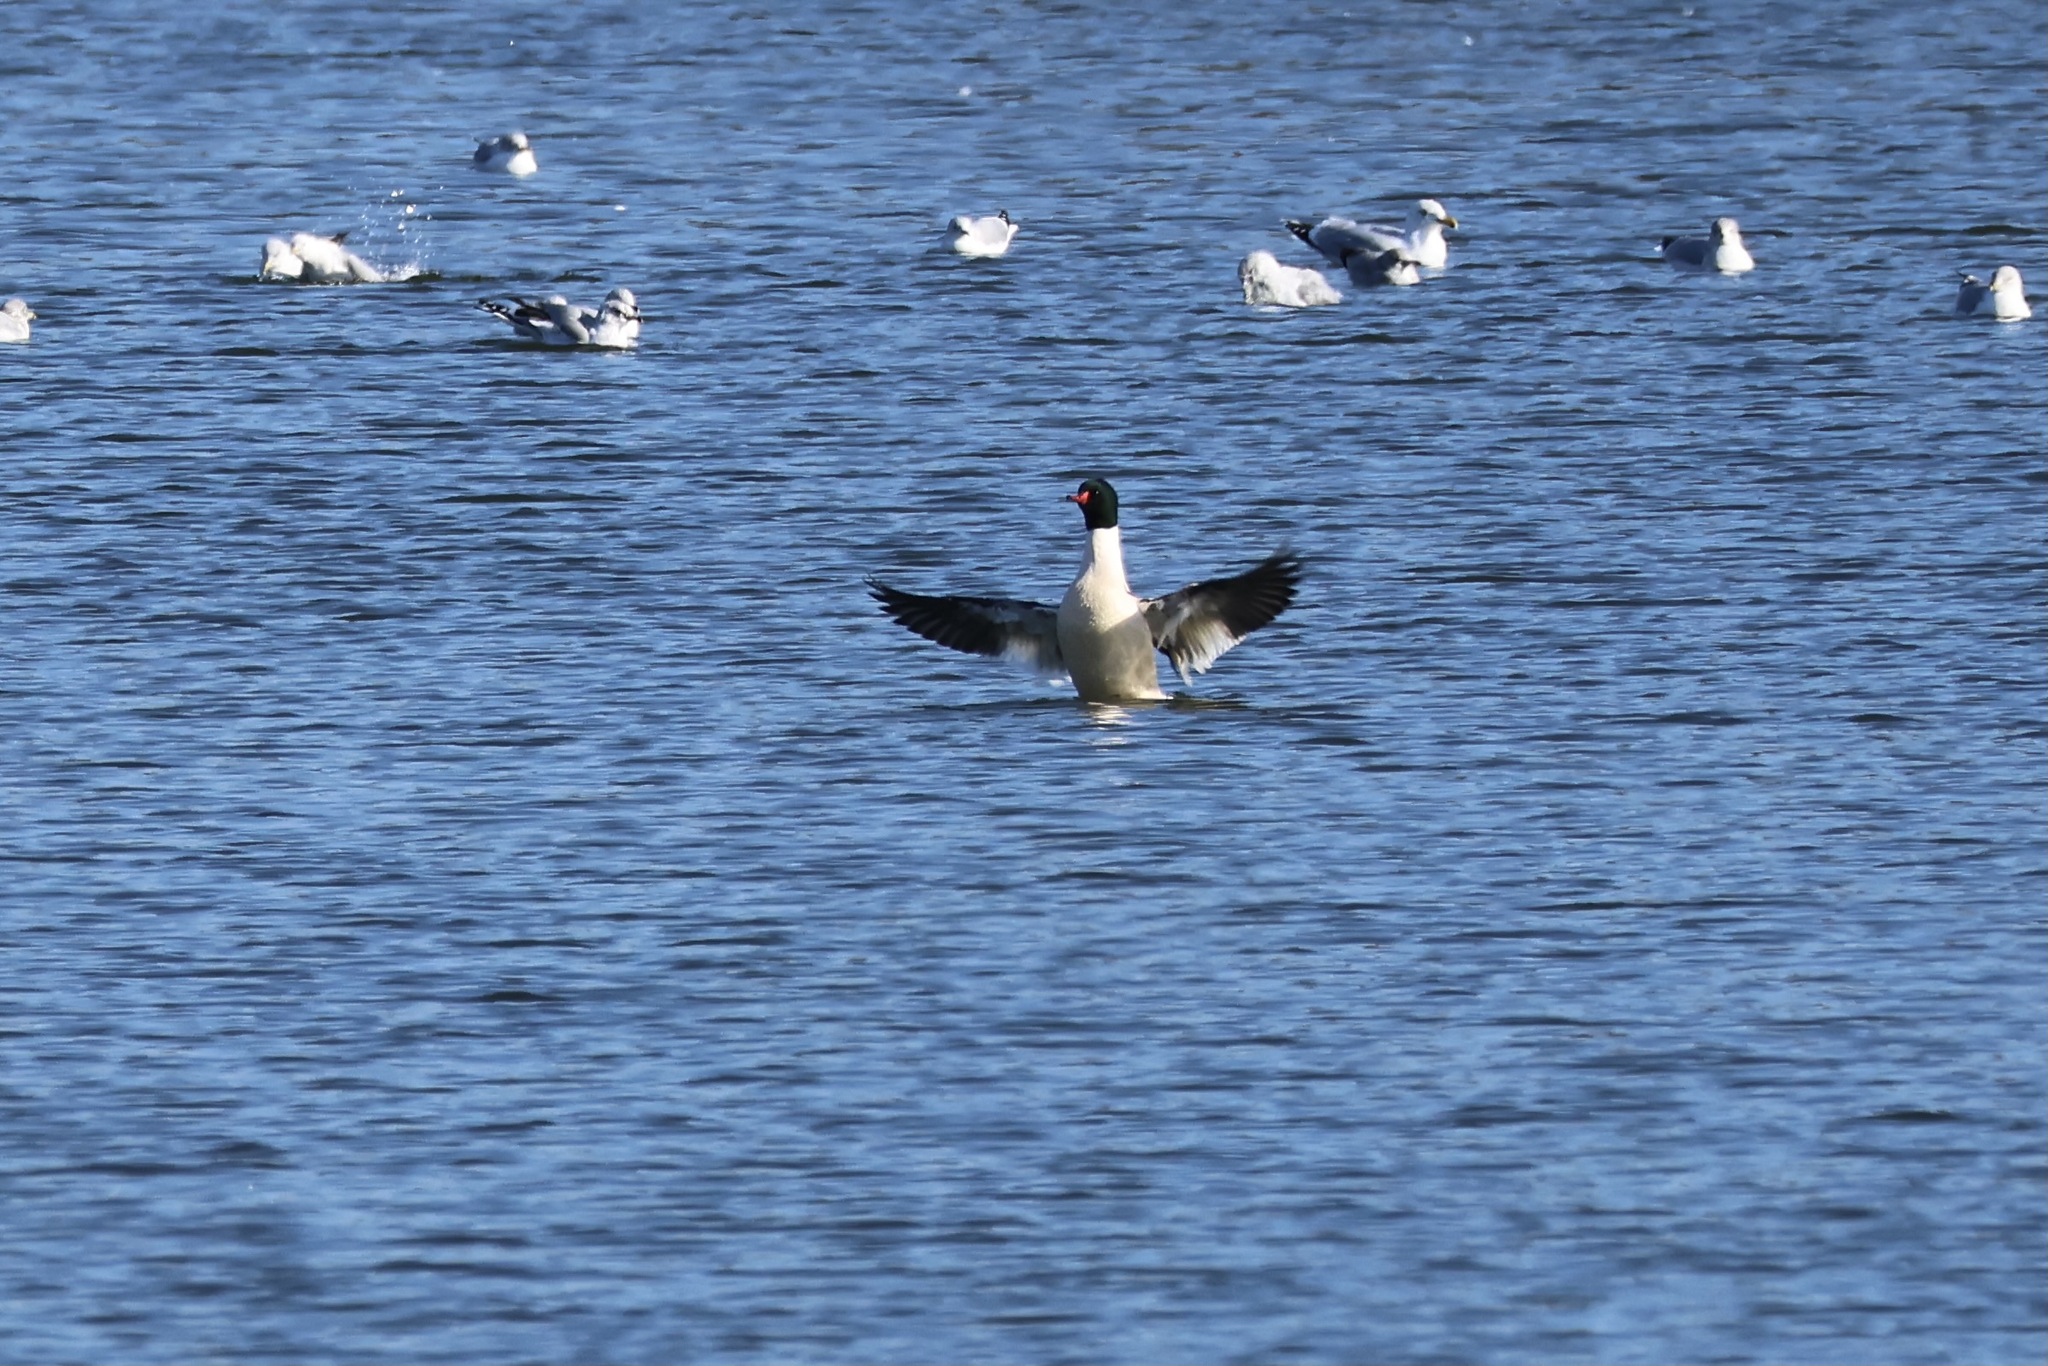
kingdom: Animalia
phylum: Chordata
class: Aves
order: Anseriformes
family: Anatidae
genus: Mergus
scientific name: Mergus merganser
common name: Common merganser
